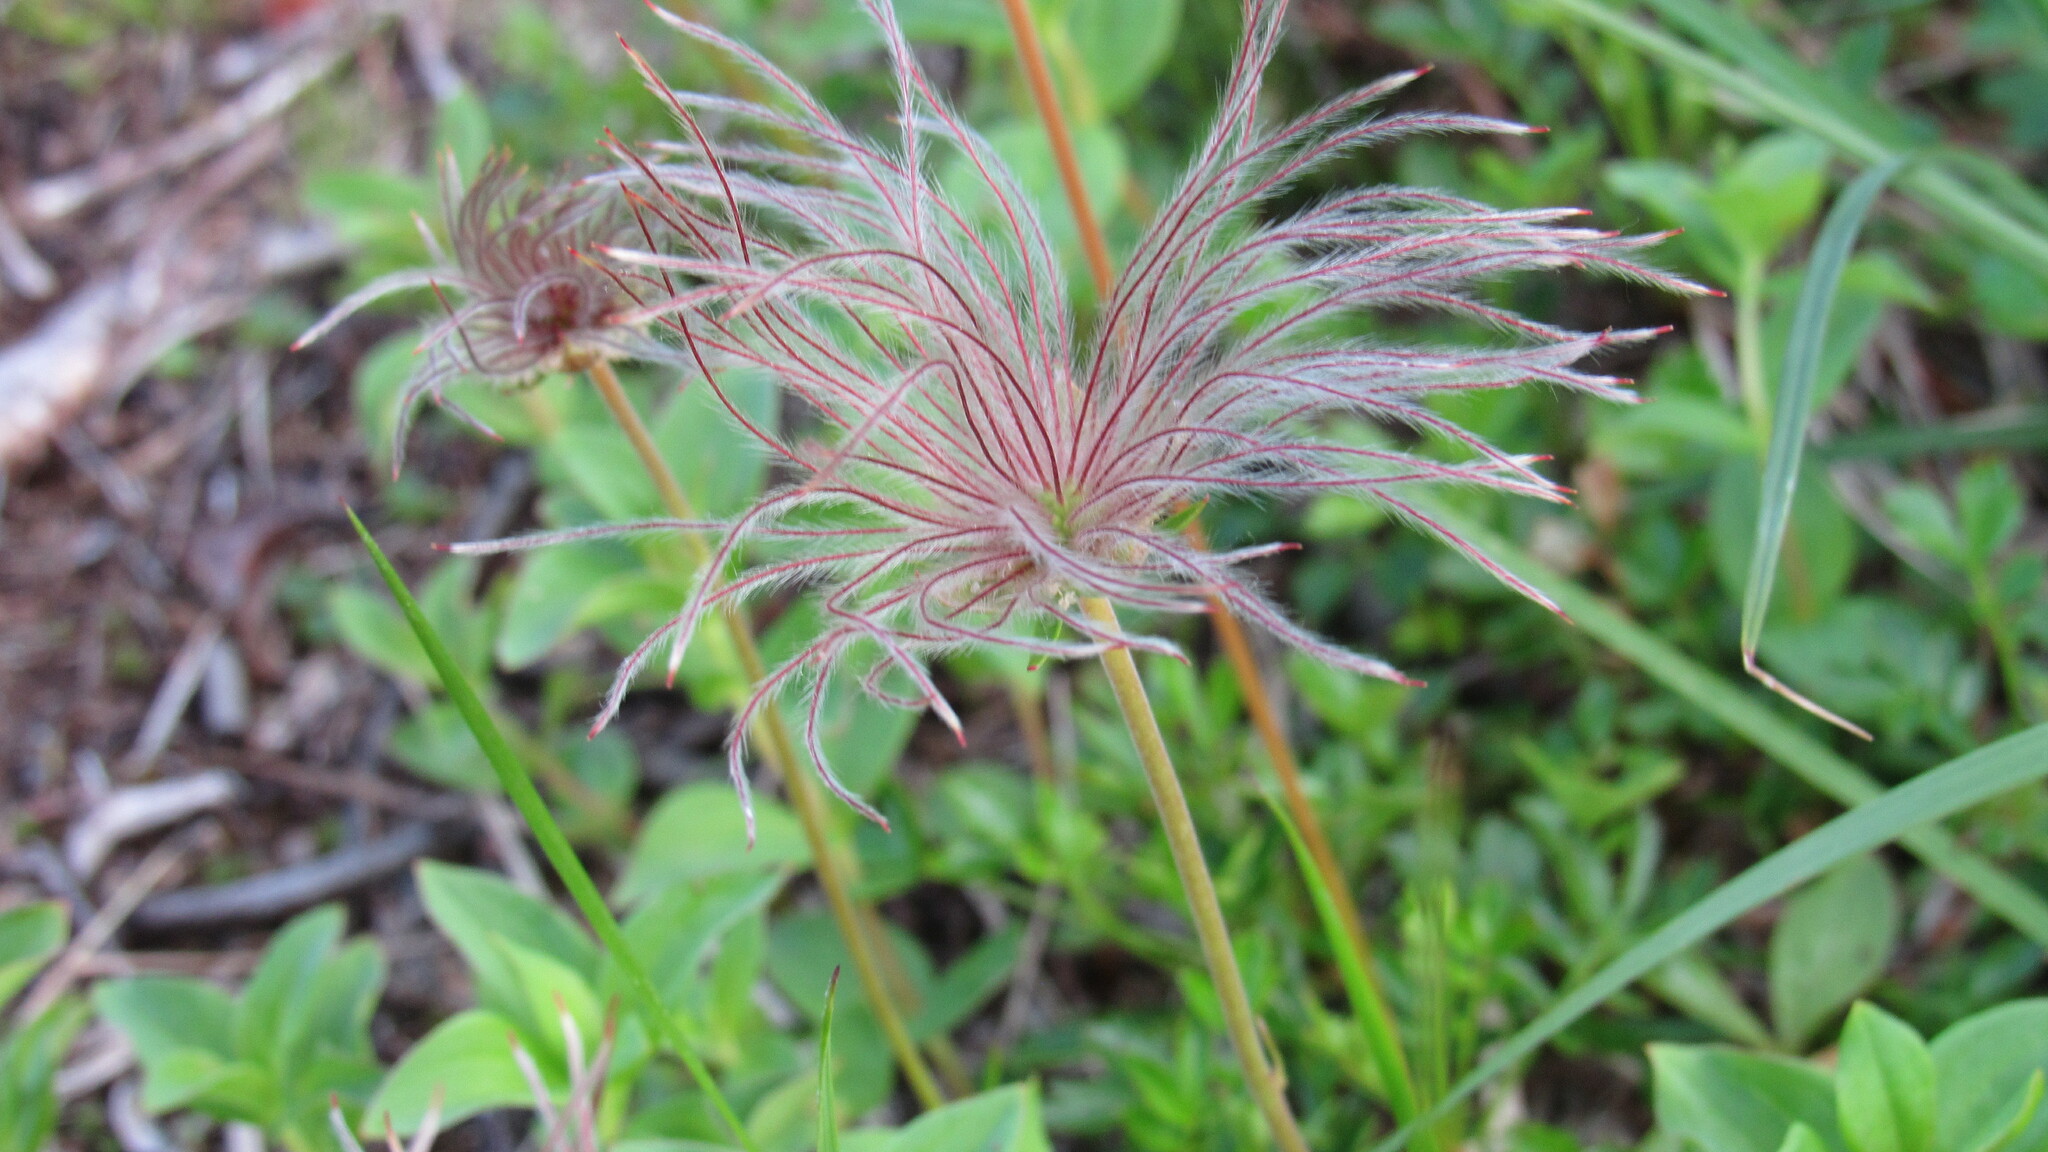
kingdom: Plantae
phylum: Tracheophyta
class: Magnoliopsida
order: Rosales
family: Rosaceae
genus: Geum
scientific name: Geum pentapetalum
